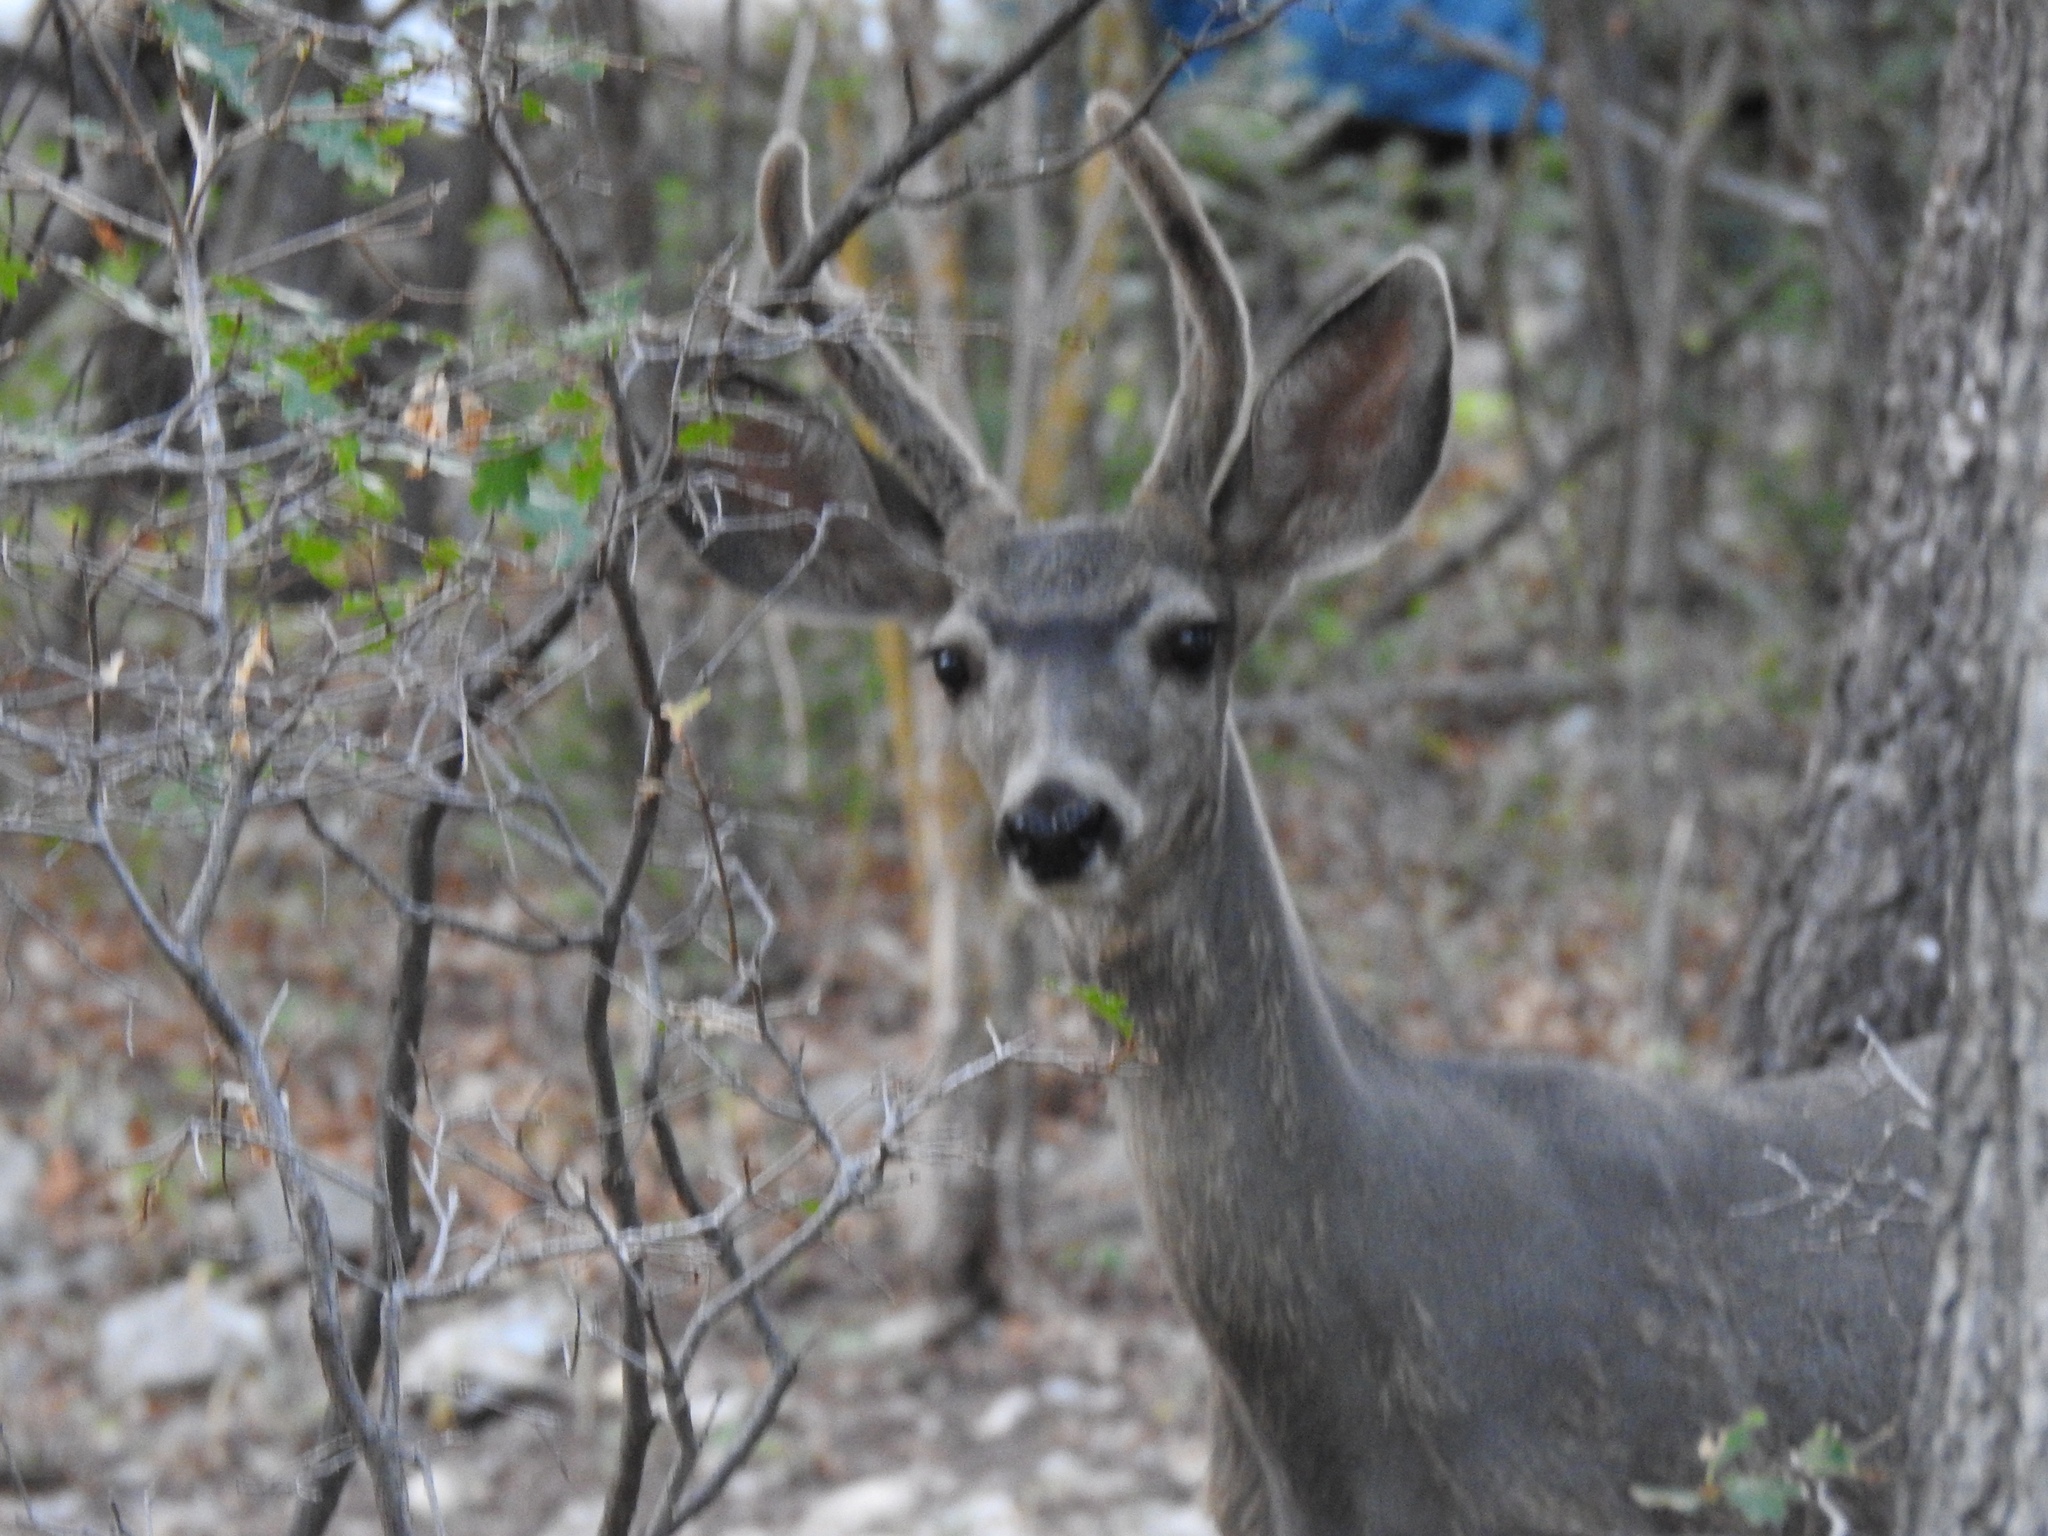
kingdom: Animalia
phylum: Chordata
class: Mammalia
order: Artiodactyla
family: Cervidae
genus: Odocoileus
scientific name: Odocoileus hemionus
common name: Mule deer
